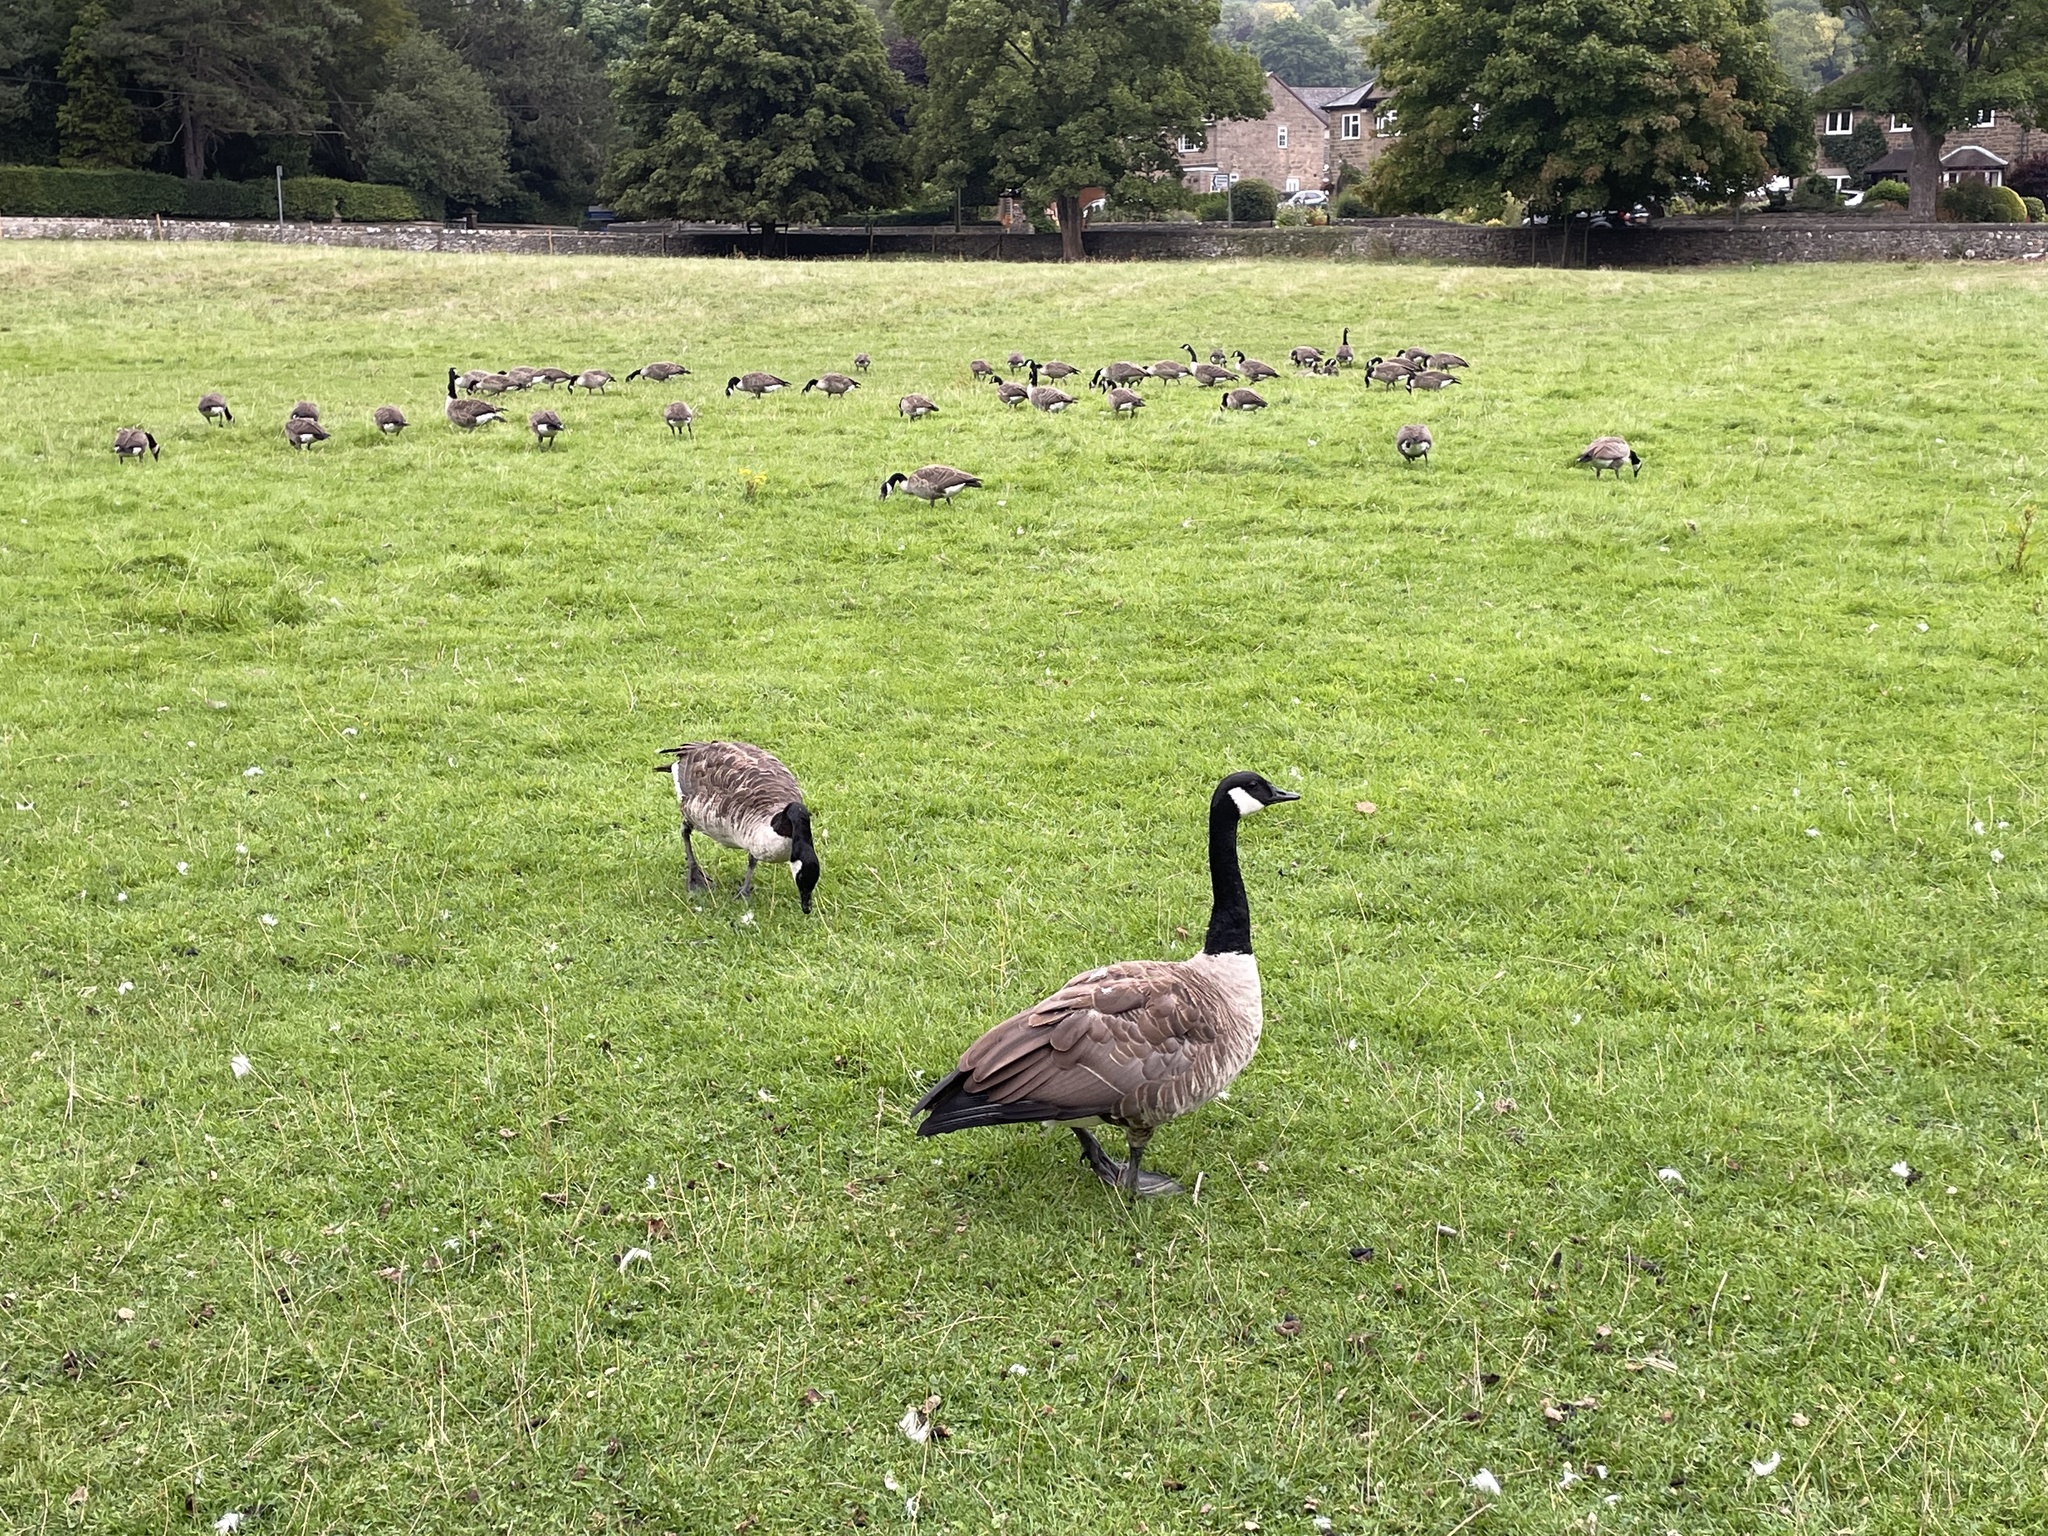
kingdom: Animalia
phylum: Chordata
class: Aves
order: Anseriformes
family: Anatidae
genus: Branta
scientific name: Branta canadensis
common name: Canada goose
